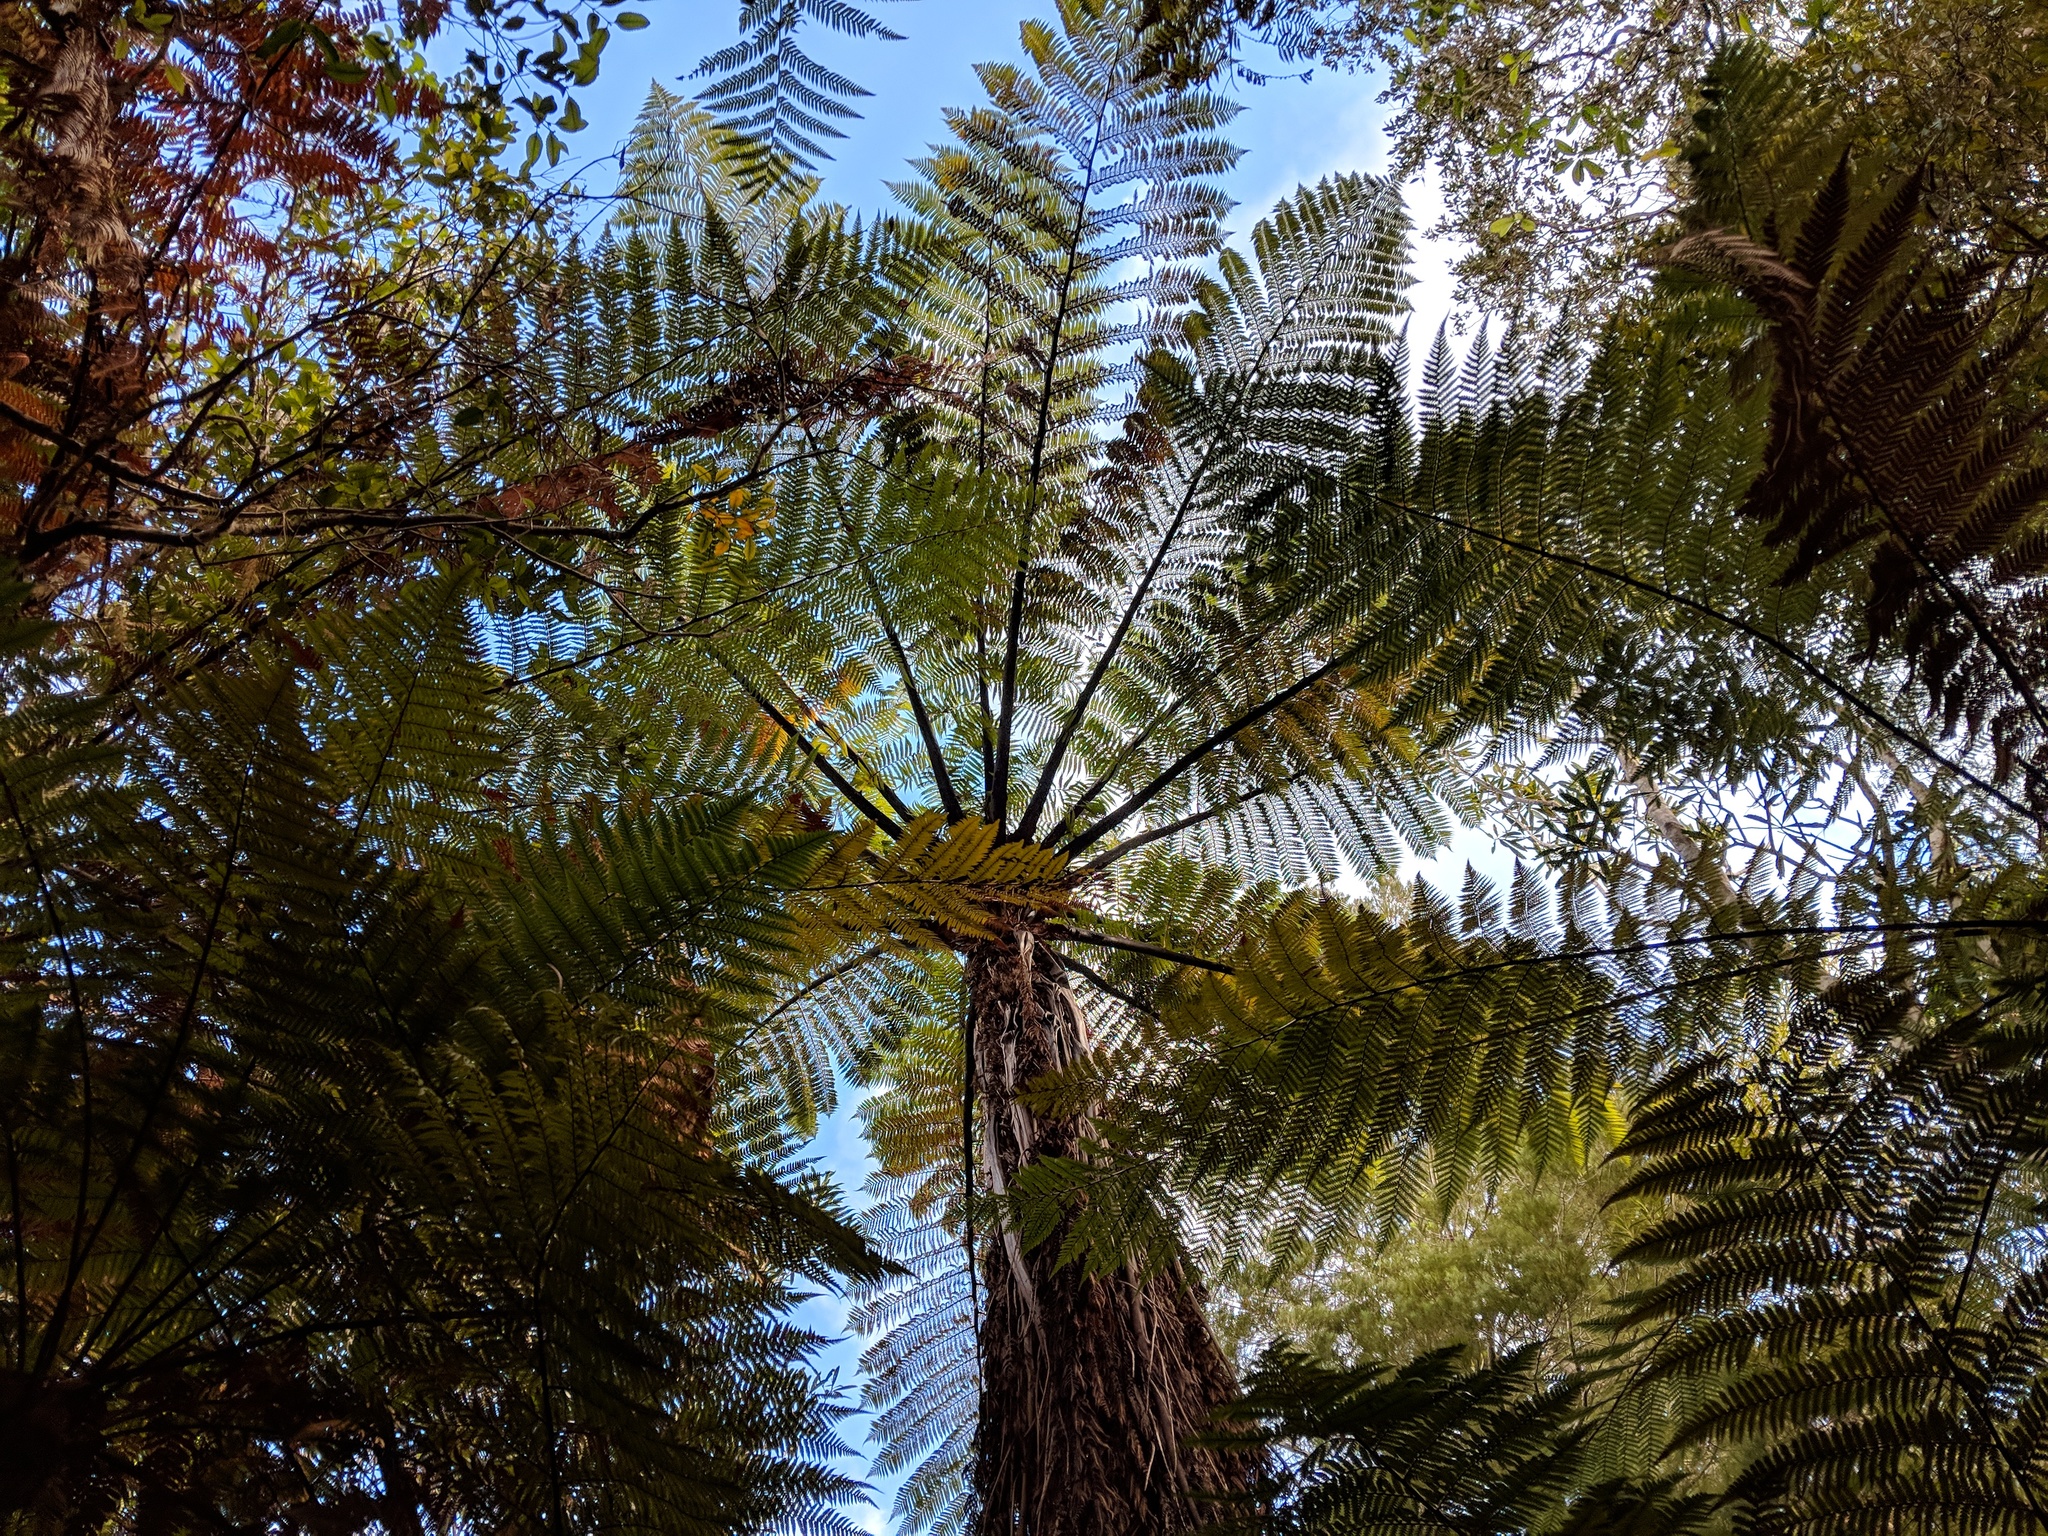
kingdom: Plantae
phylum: Tracheophyta
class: Polypodiopsida
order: Cyatheales
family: Cyatheaceae
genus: Sphaeropteris
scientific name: Sphaeropteris medullaris
